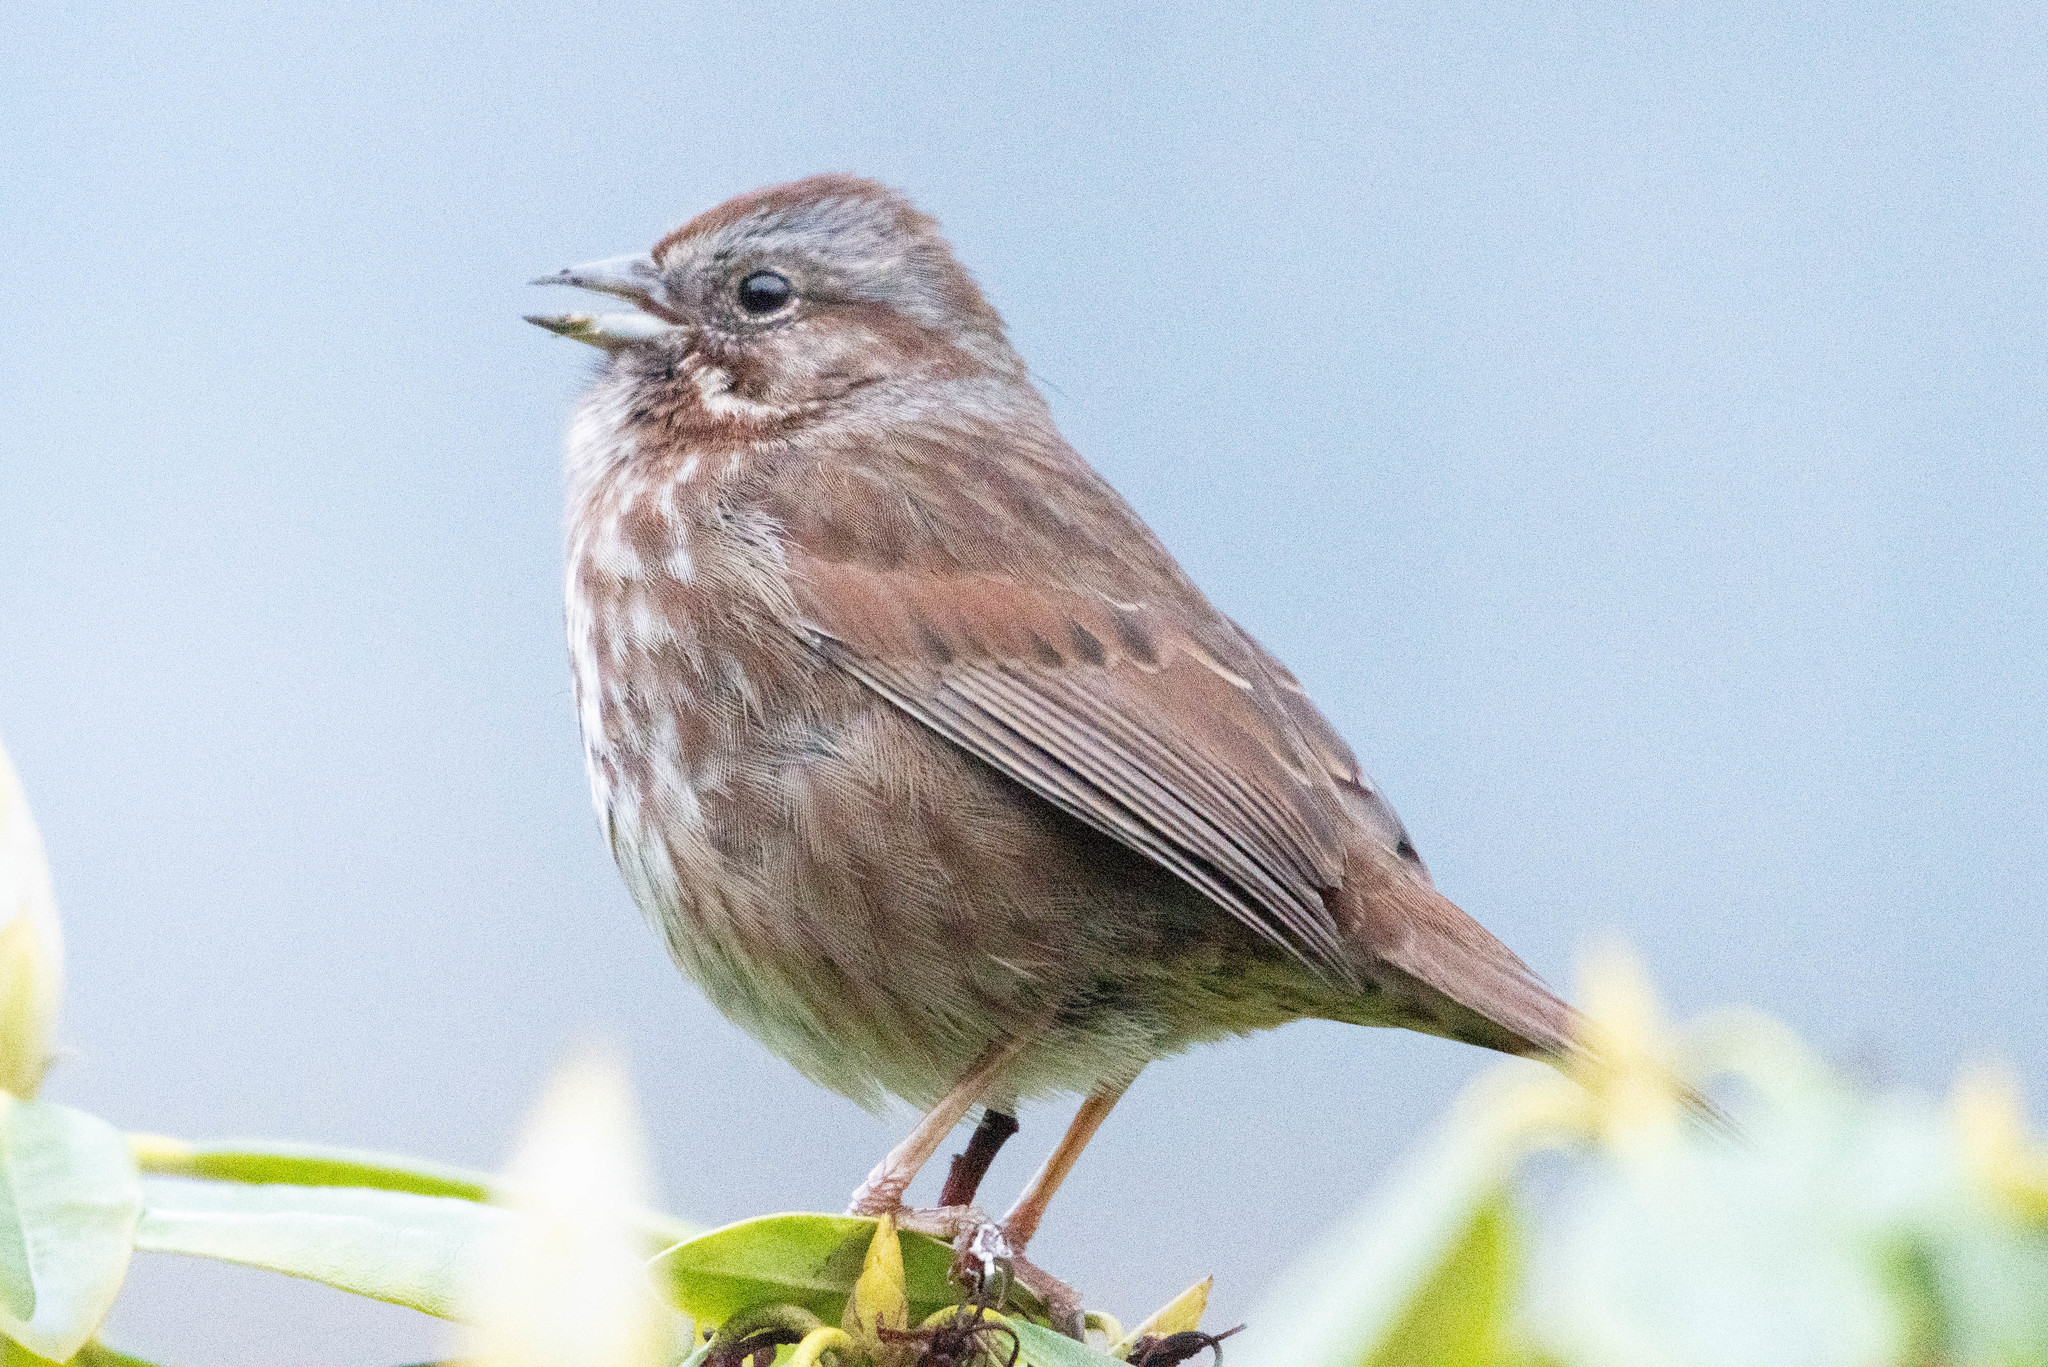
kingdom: Animalia
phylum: Chordata
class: Aves
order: Passeriformes
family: Passerellidae
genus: Melospiza
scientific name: Melospiza melodia
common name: Song sparrow
